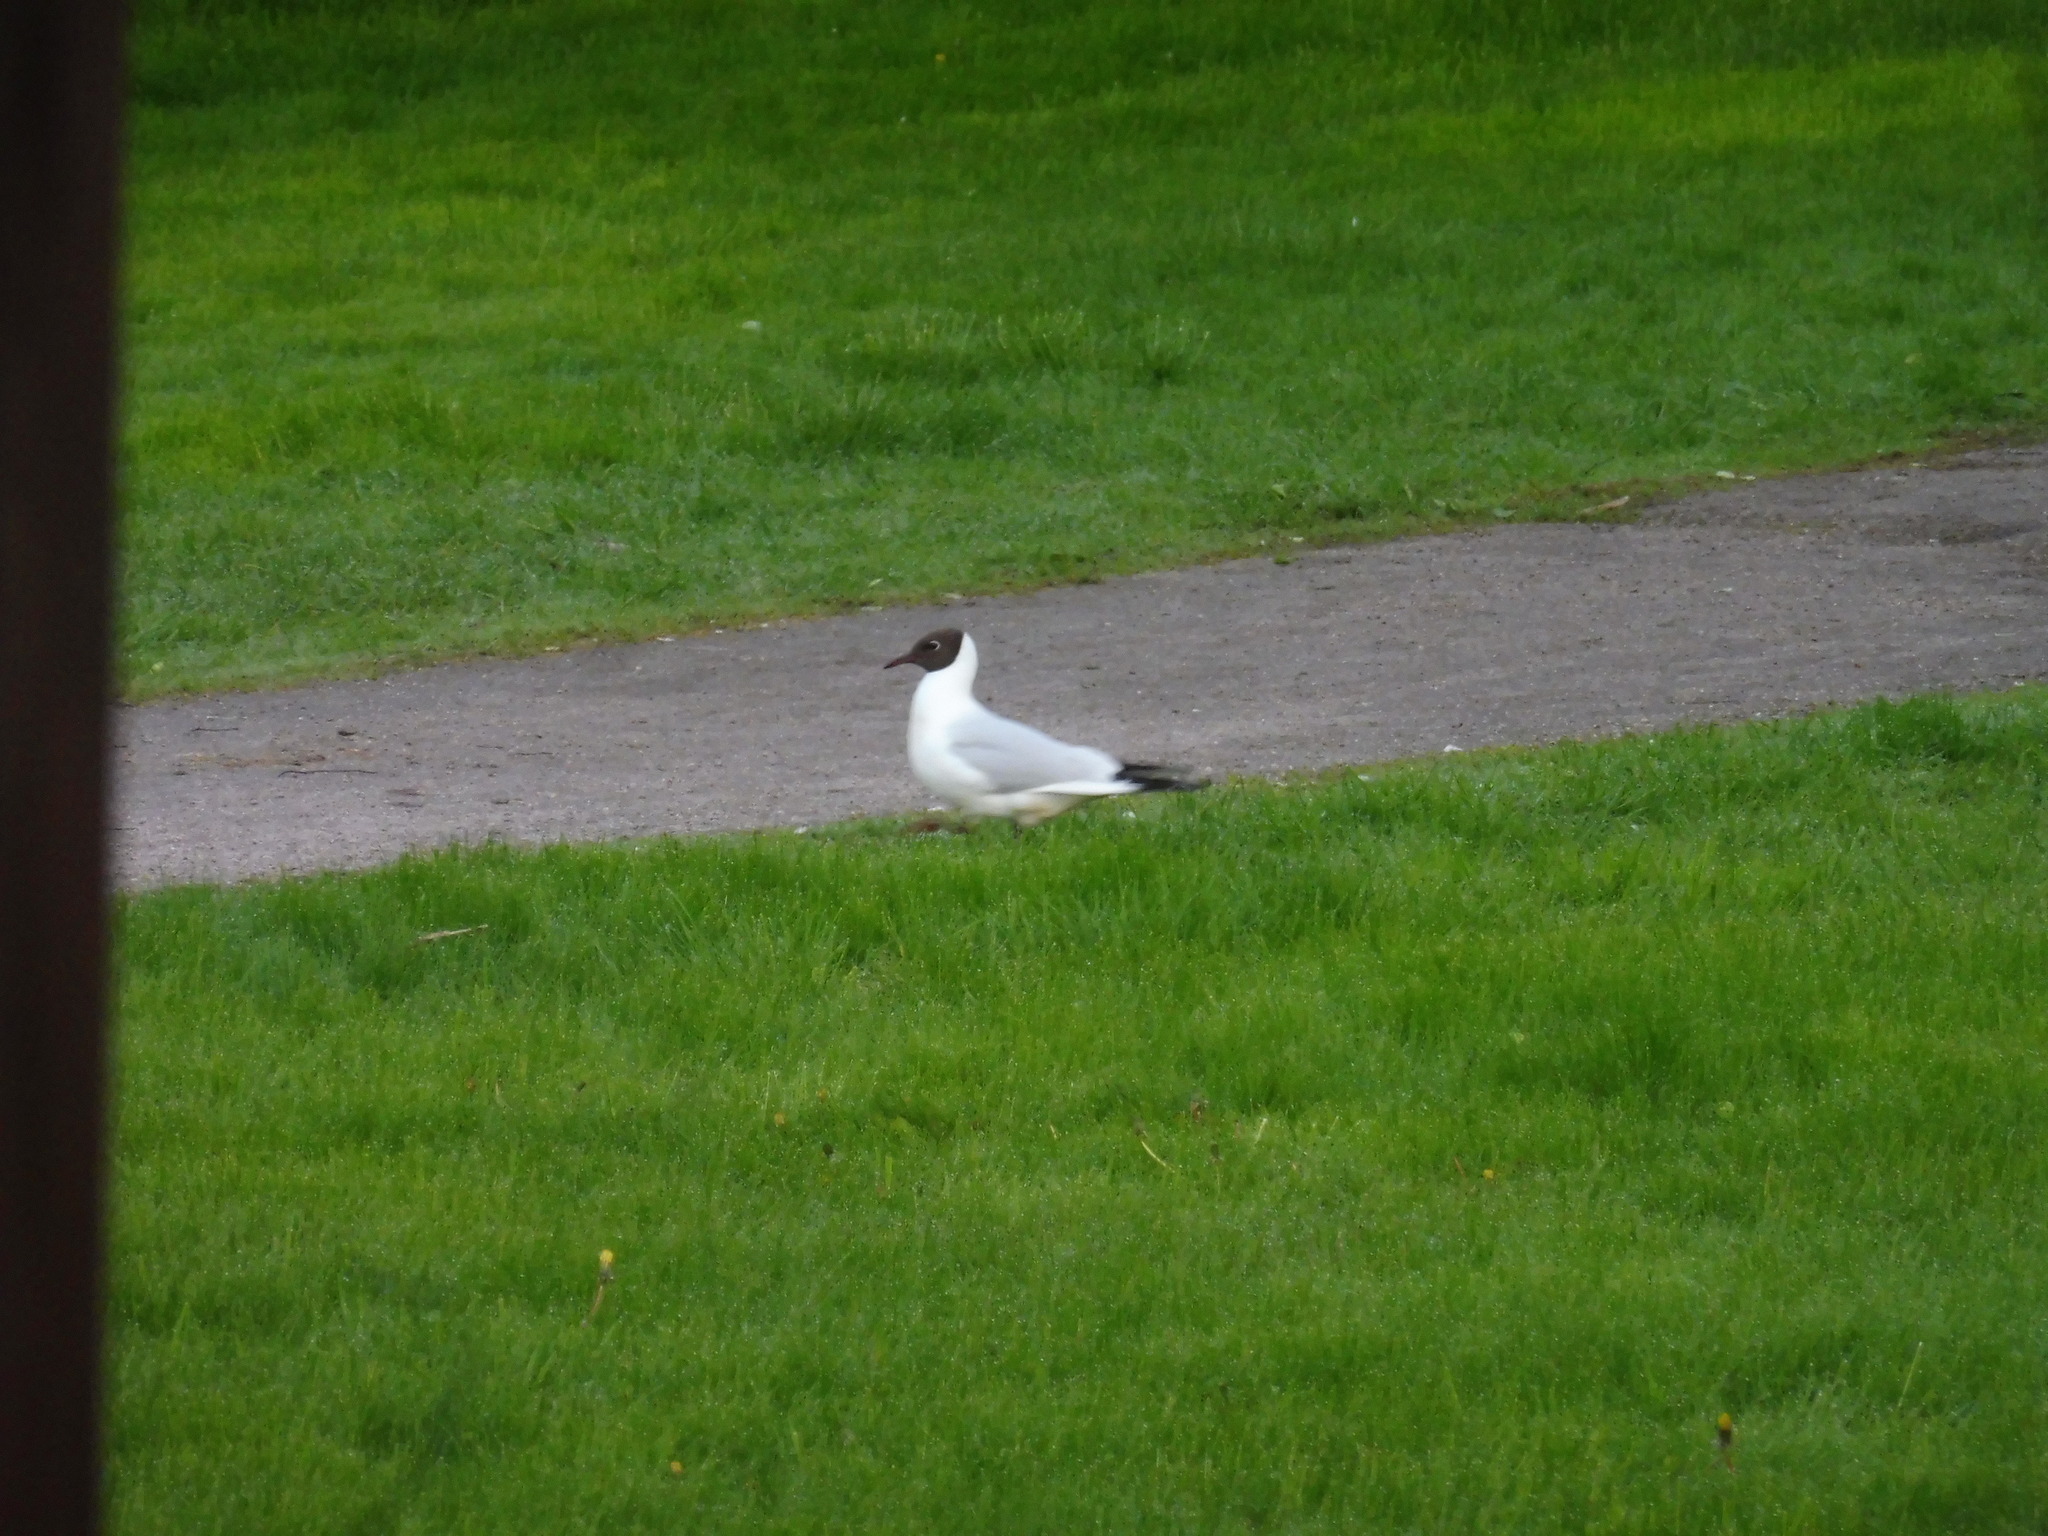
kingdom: Animalia
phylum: Chordata
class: Aves
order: Charadriiformes
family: Laridae
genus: Chroicocephalus
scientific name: Chroicocephalus ridibundus
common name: Black-headed gull
